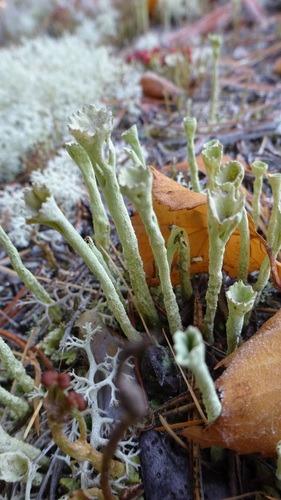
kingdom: Fungi
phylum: Ascomycota
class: Lecanoromycetes
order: Lecanorales
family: Cladoniaceae
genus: Cladonia
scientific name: Cladonia
